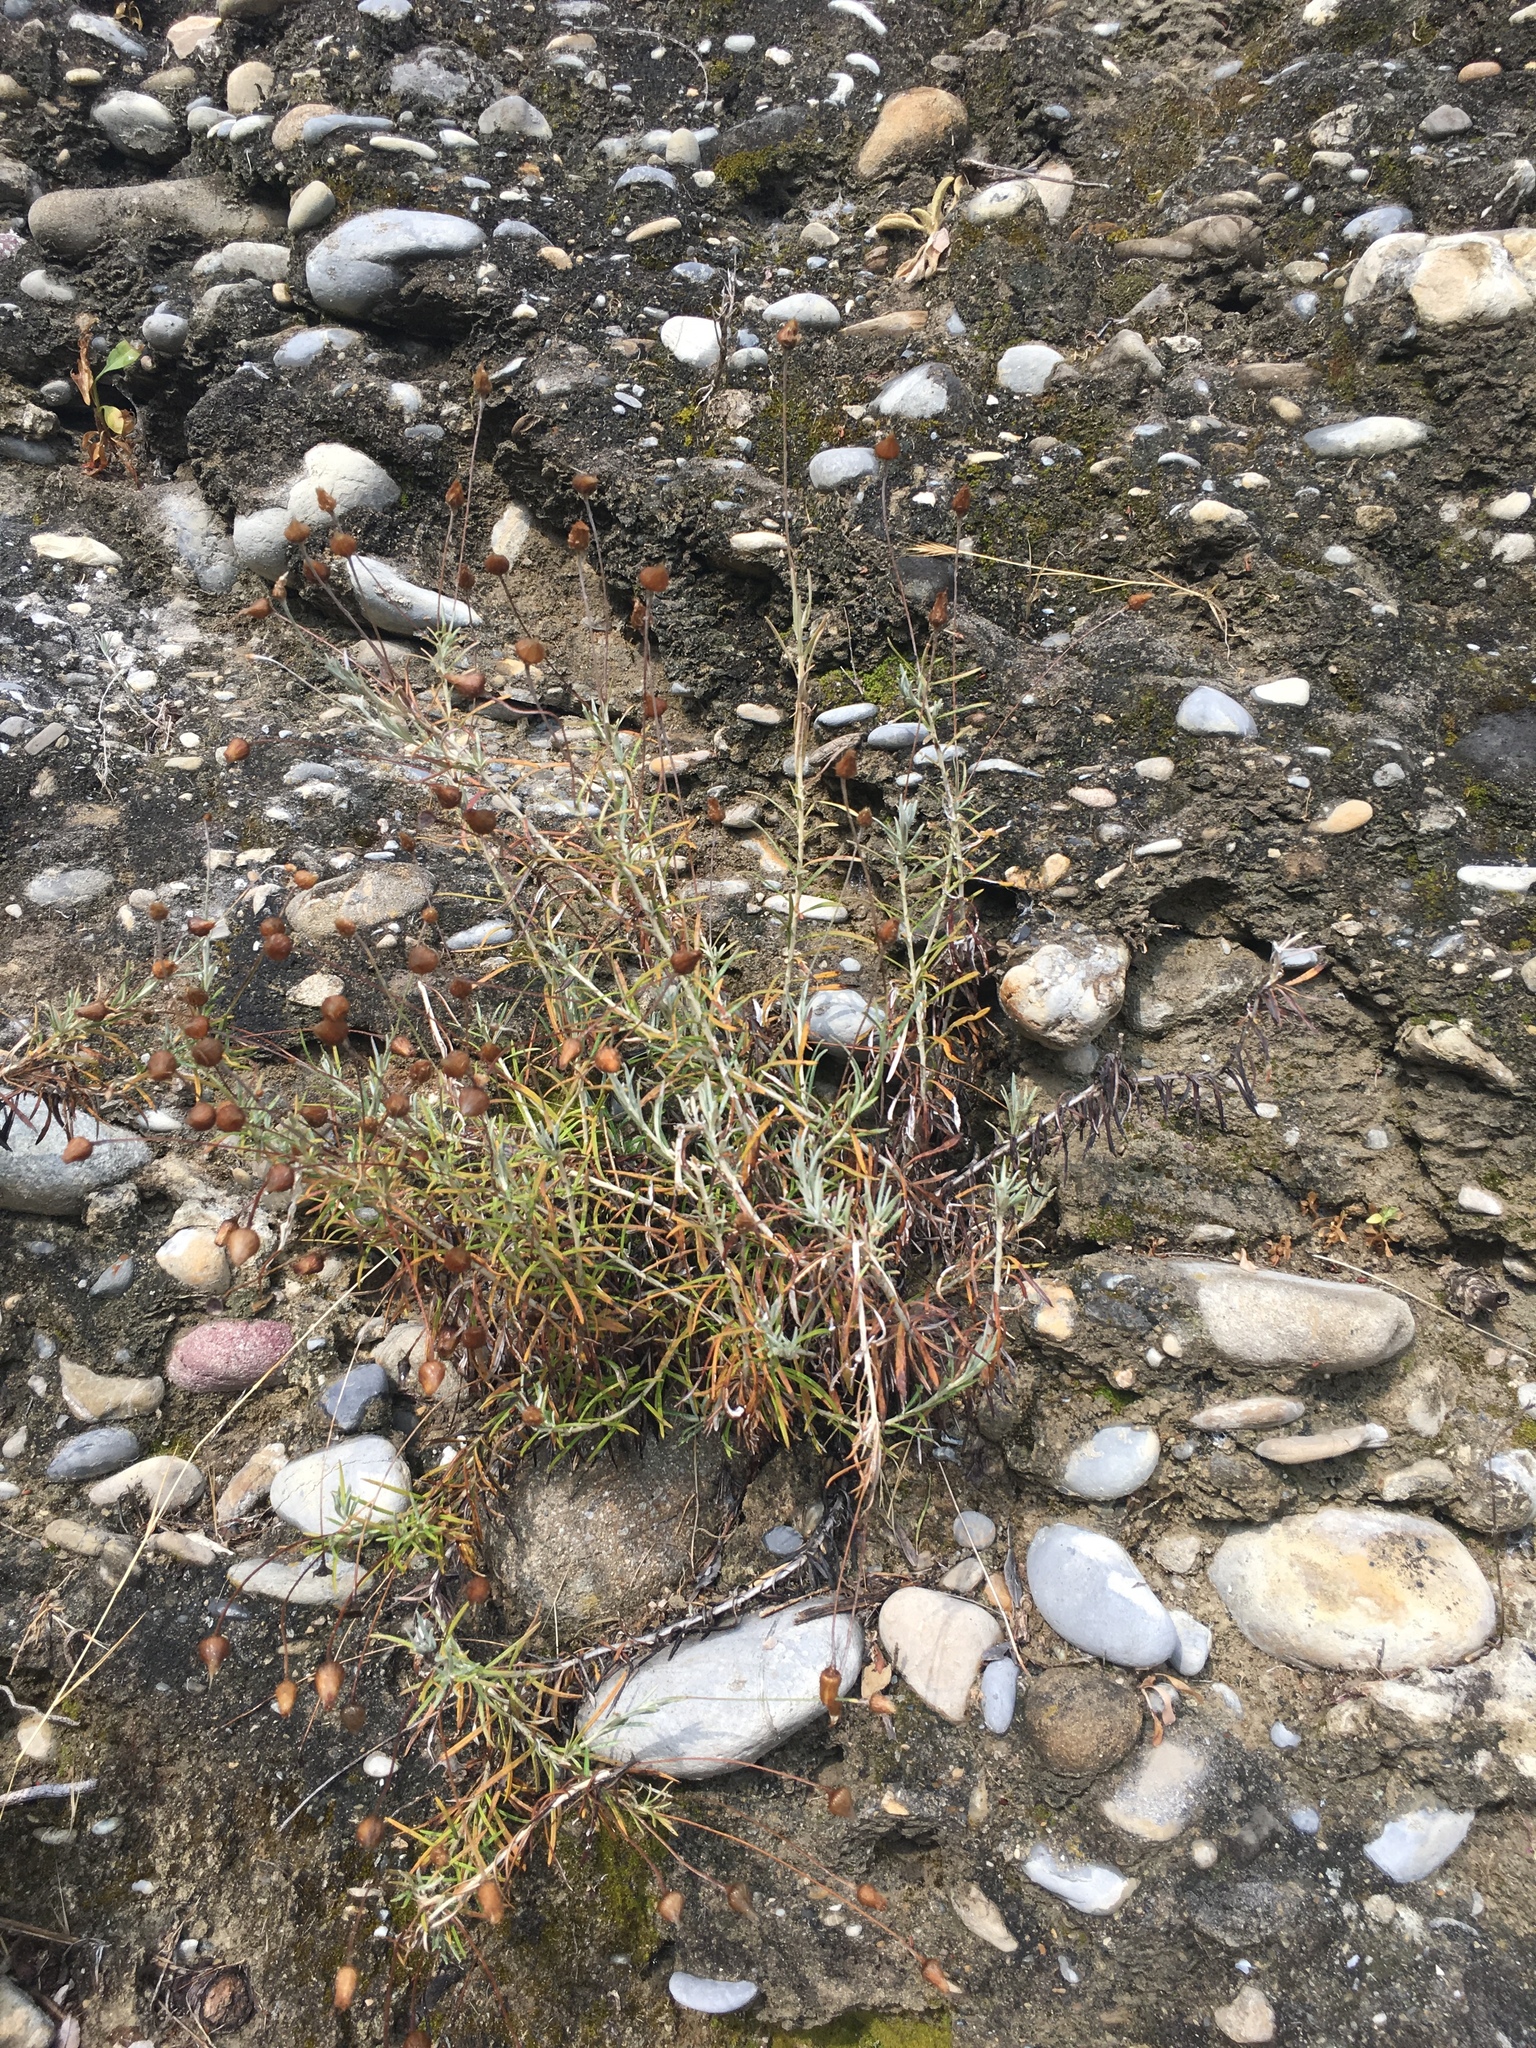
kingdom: Plantae
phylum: Tracheophyta
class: Magnoliopsida
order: Asterales
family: Asteraceae
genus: Senecio
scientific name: Senecio inaequidens
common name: Narrow-leaved ragwort
